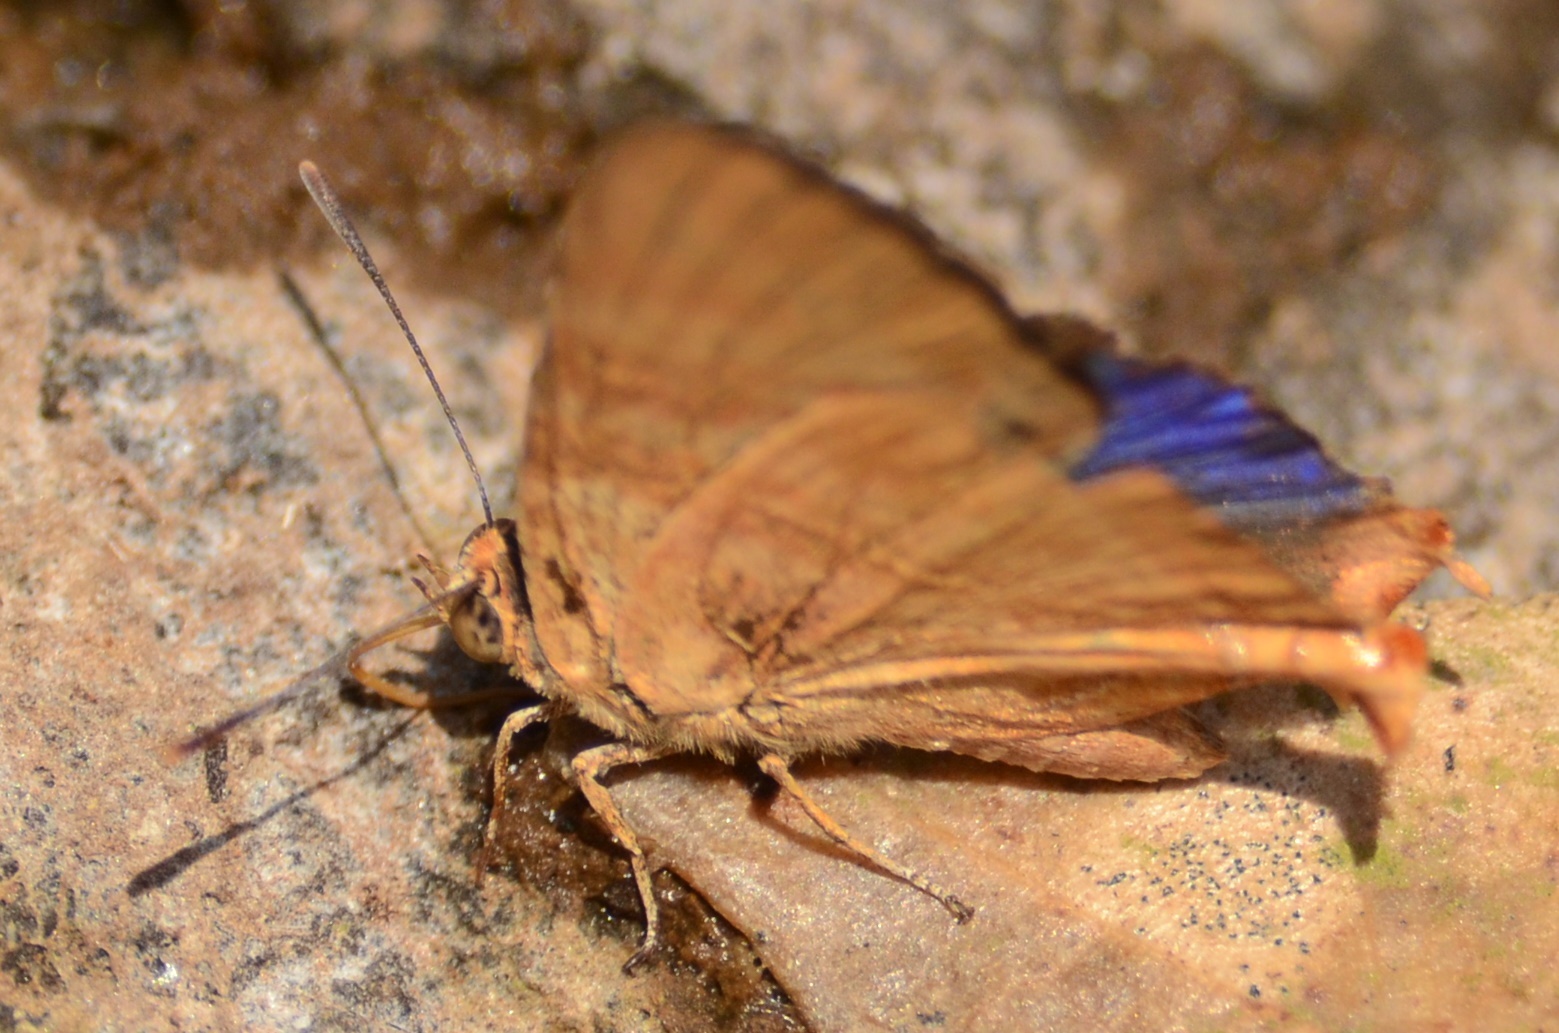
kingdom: Animalia
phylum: Arthropoda
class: Insecta
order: Lepidoptera
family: Lycaenidae
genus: Cigaritis
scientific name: Cigaritis
